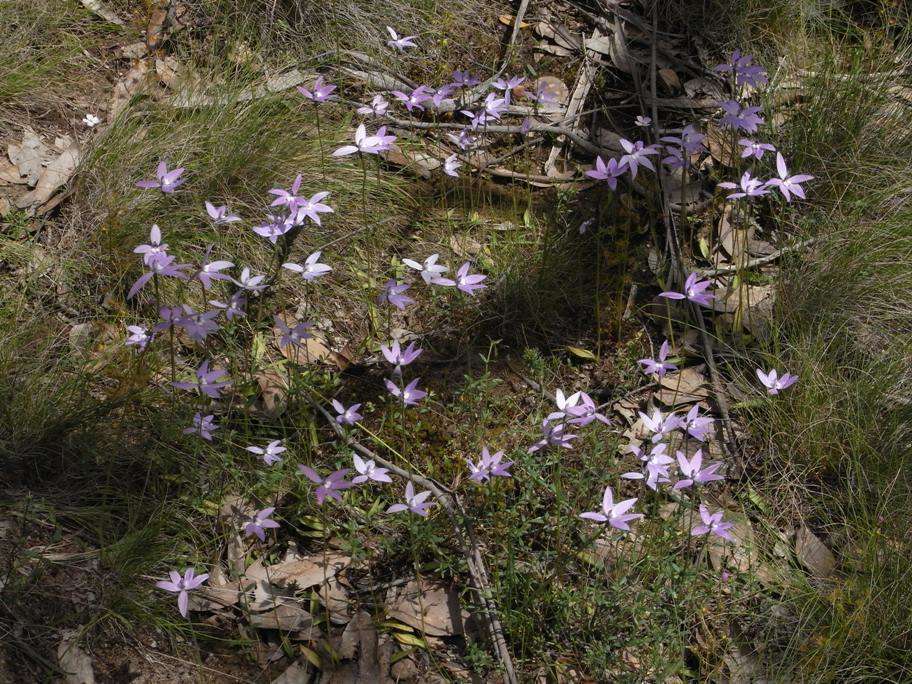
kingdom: Plantae
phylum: Tracheophyta
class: Liliopsida
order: Asparagales
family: Orchidaceae
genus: Caladenia
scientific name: Caladenia major
